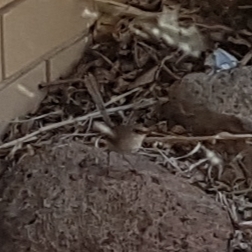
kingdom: Animalia
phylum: Chordata
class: Aves
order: Passeriformes
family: Maluridae
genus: Malurus
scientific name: Malurus cyaneus
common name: Superb fairywren
